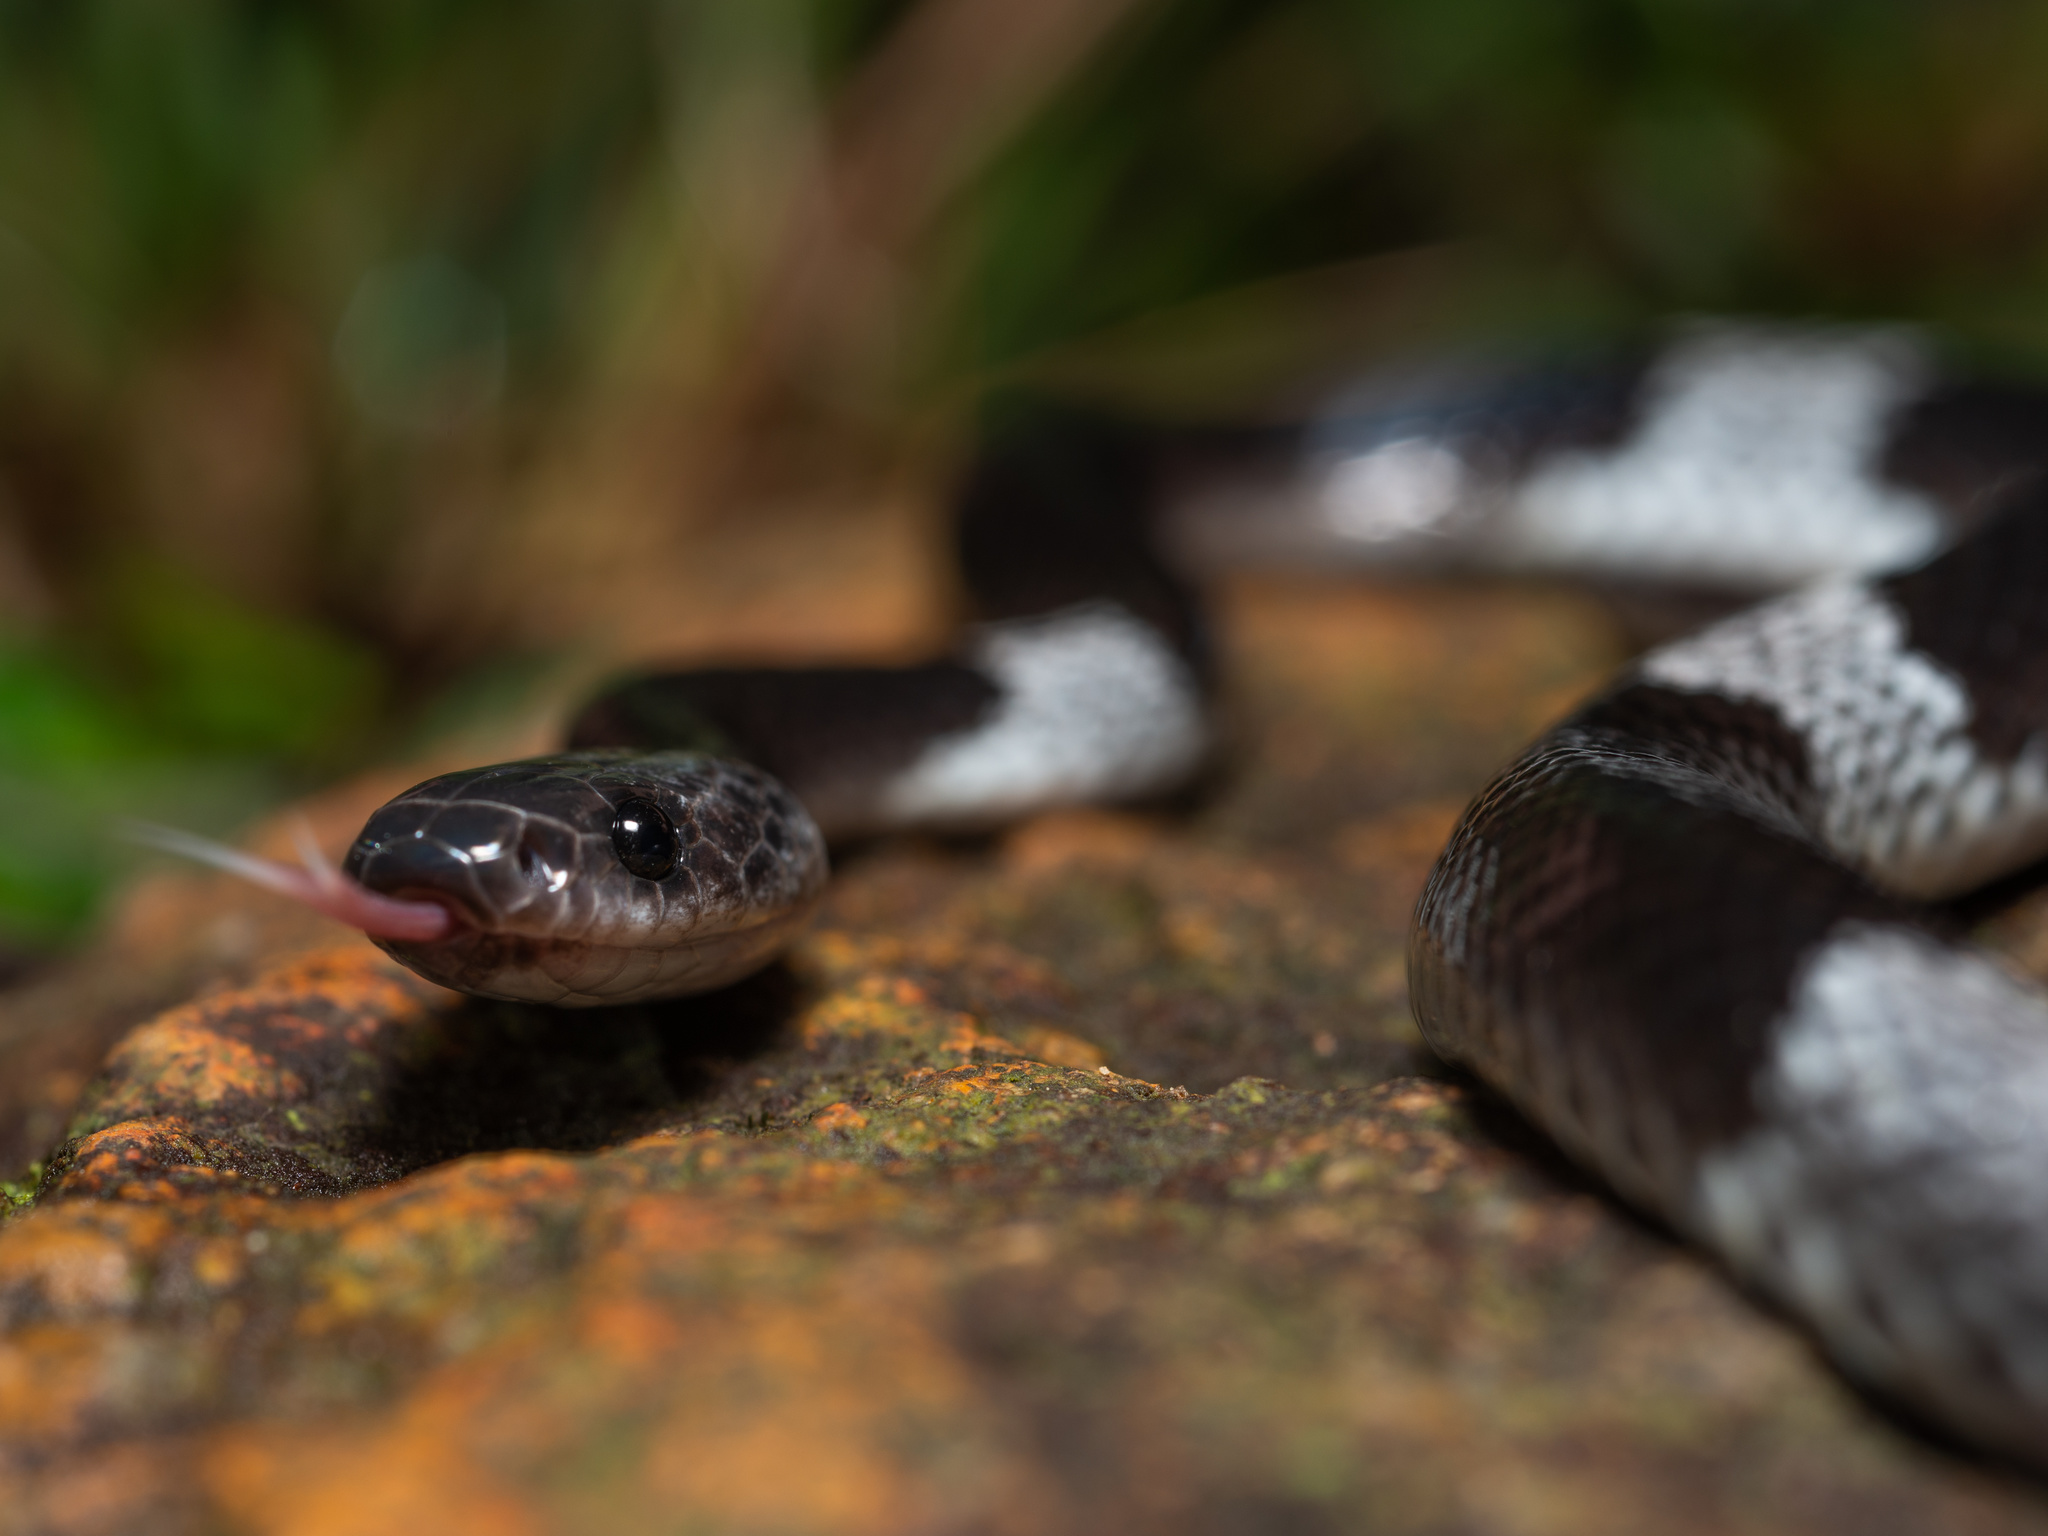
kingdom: Animalia
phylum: Chordata
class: Squamata
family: Colubridae
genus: Lycodon
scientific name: Lycodon subcinctus
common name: Malayan banded wolf snake
